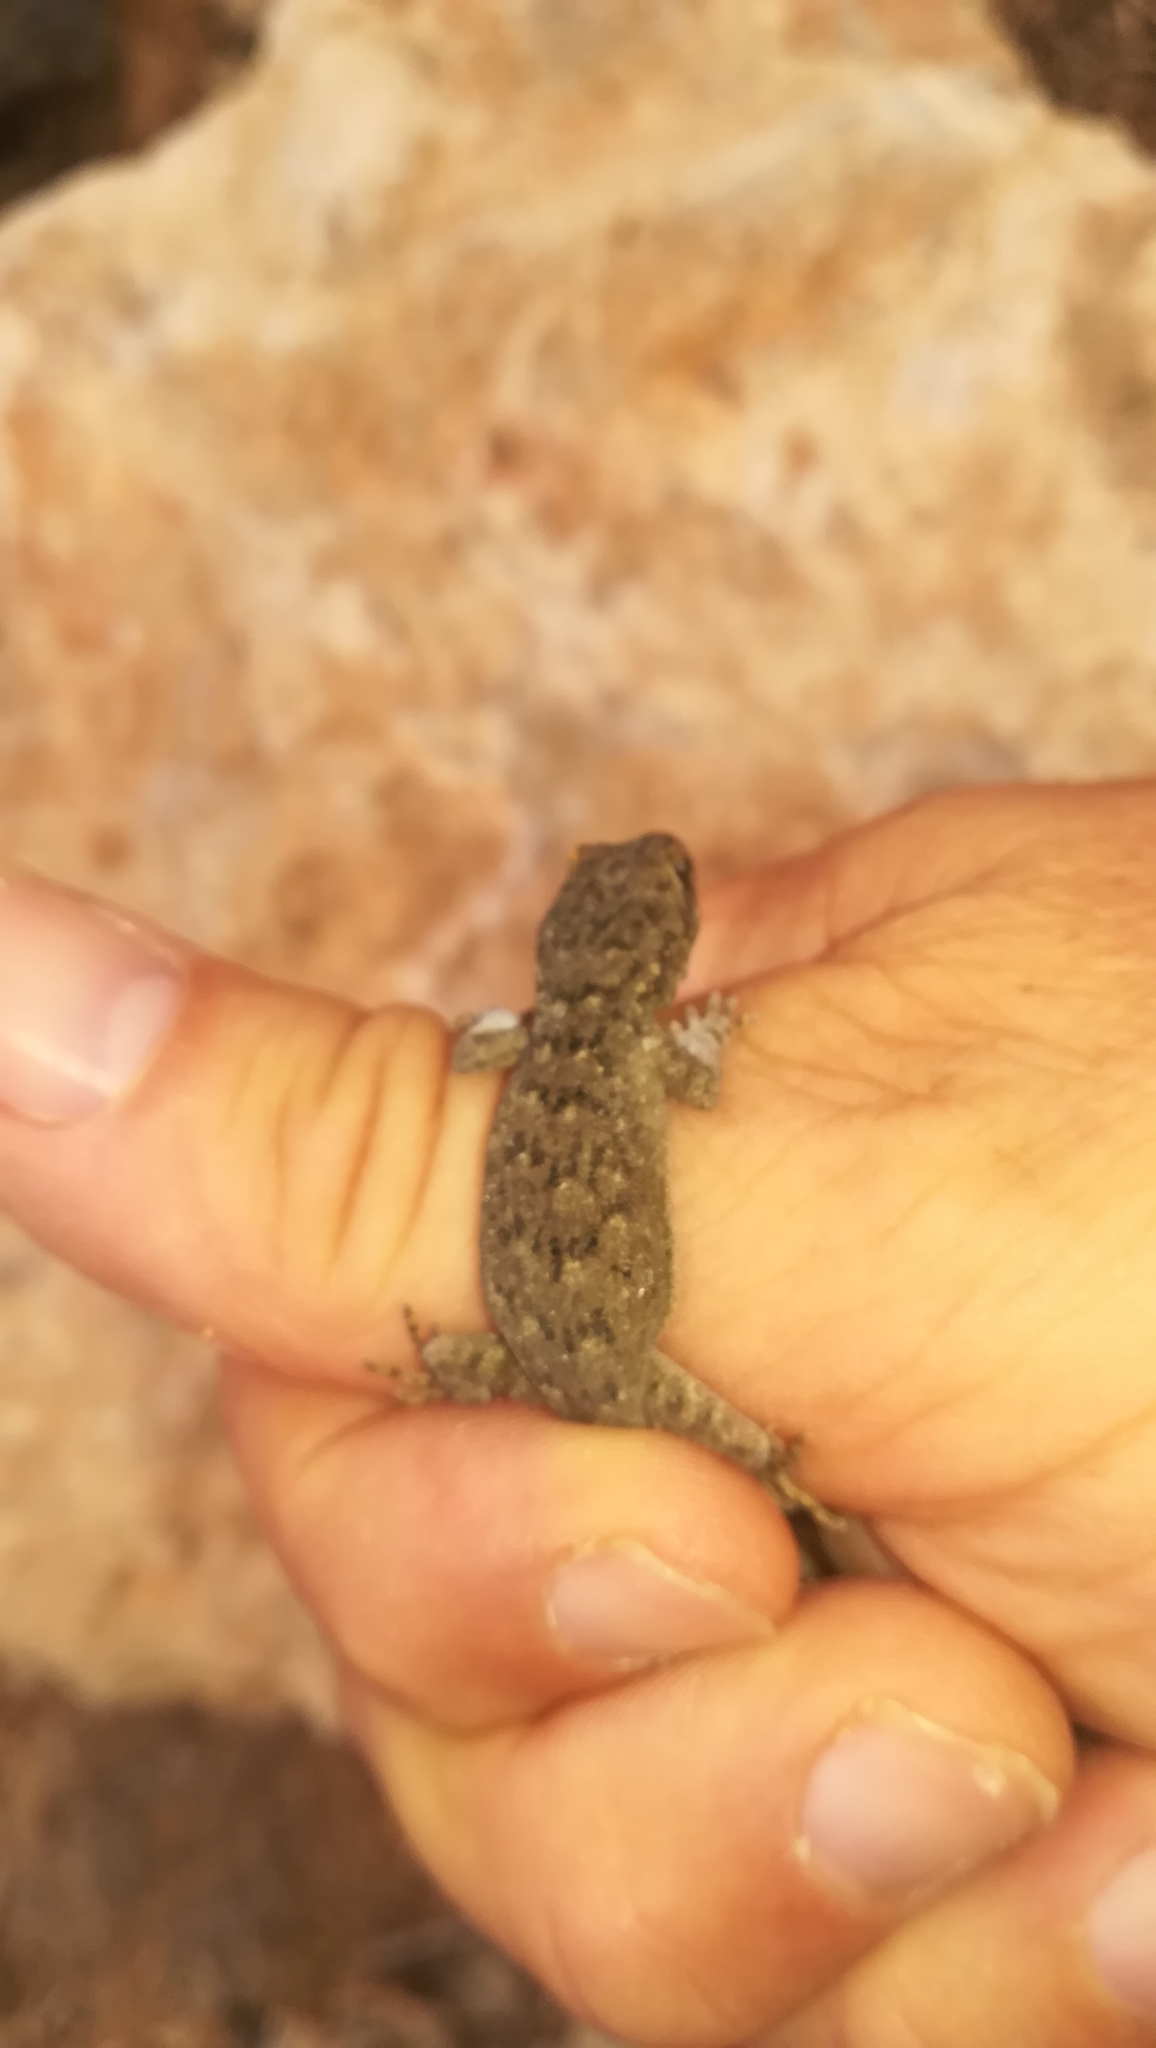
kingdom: Animalia
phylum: Chordata
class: Squamata
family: Gekkonidae
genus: Mediodactylus
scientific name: Mediodactylus oertzeni
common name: Mediterranean thin-toed gecko
